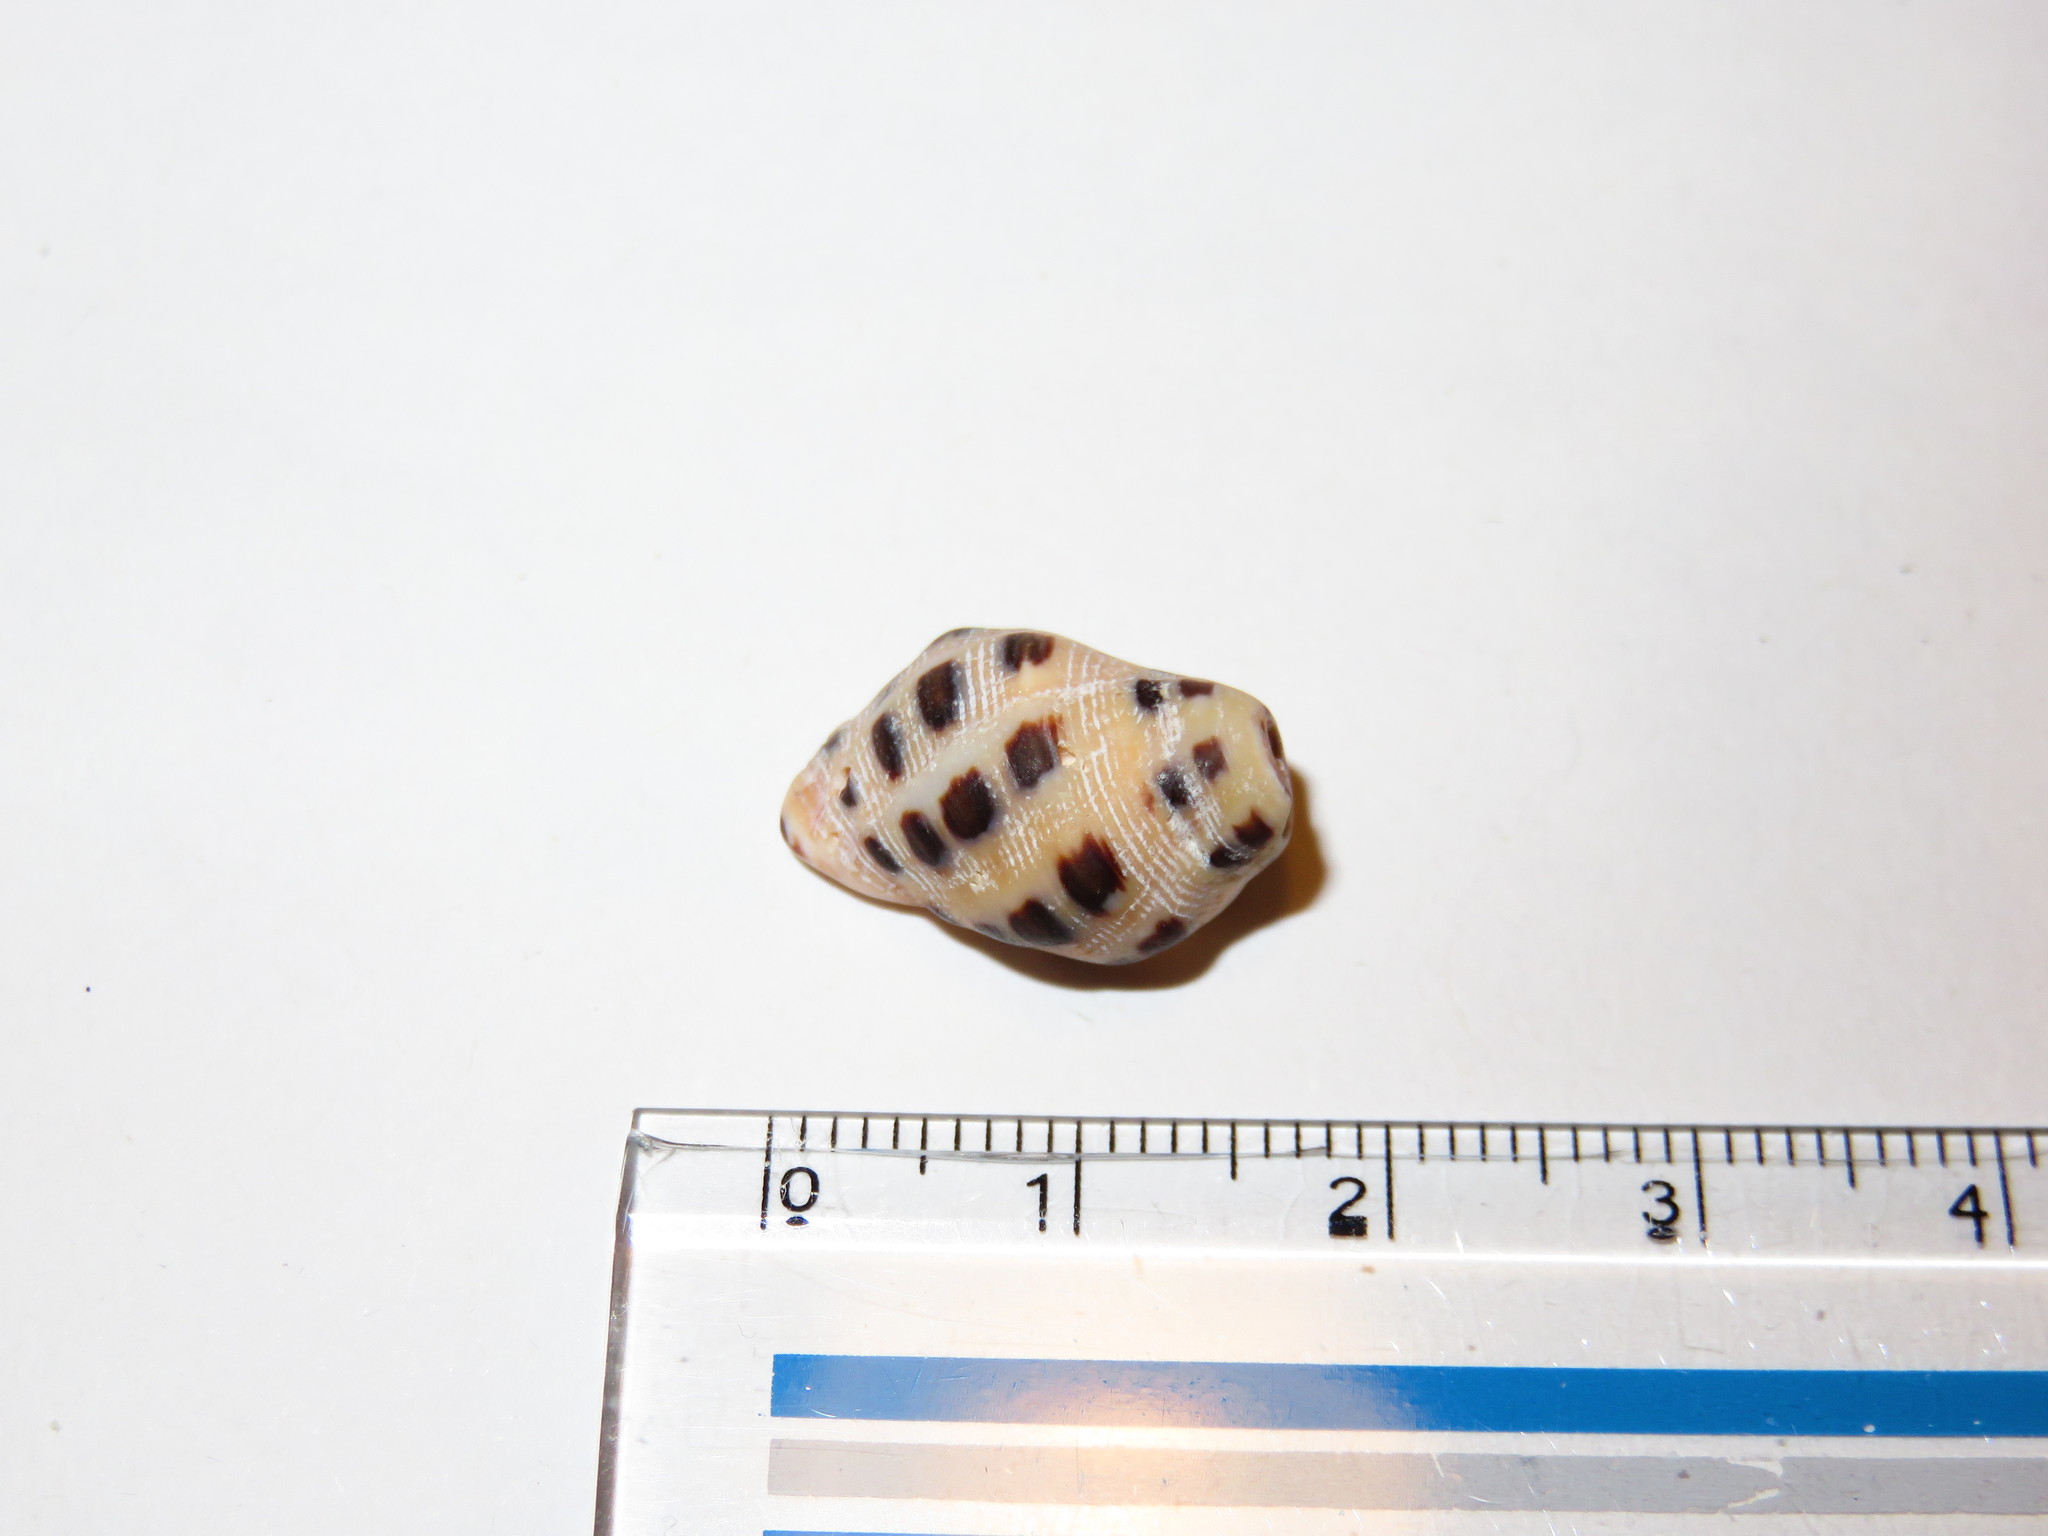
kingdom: Animalia
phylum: Mollusca
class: Gastropoda
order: Neogastropoda
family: Muricidae
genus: Reishia
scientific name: Reishia luteostoma
